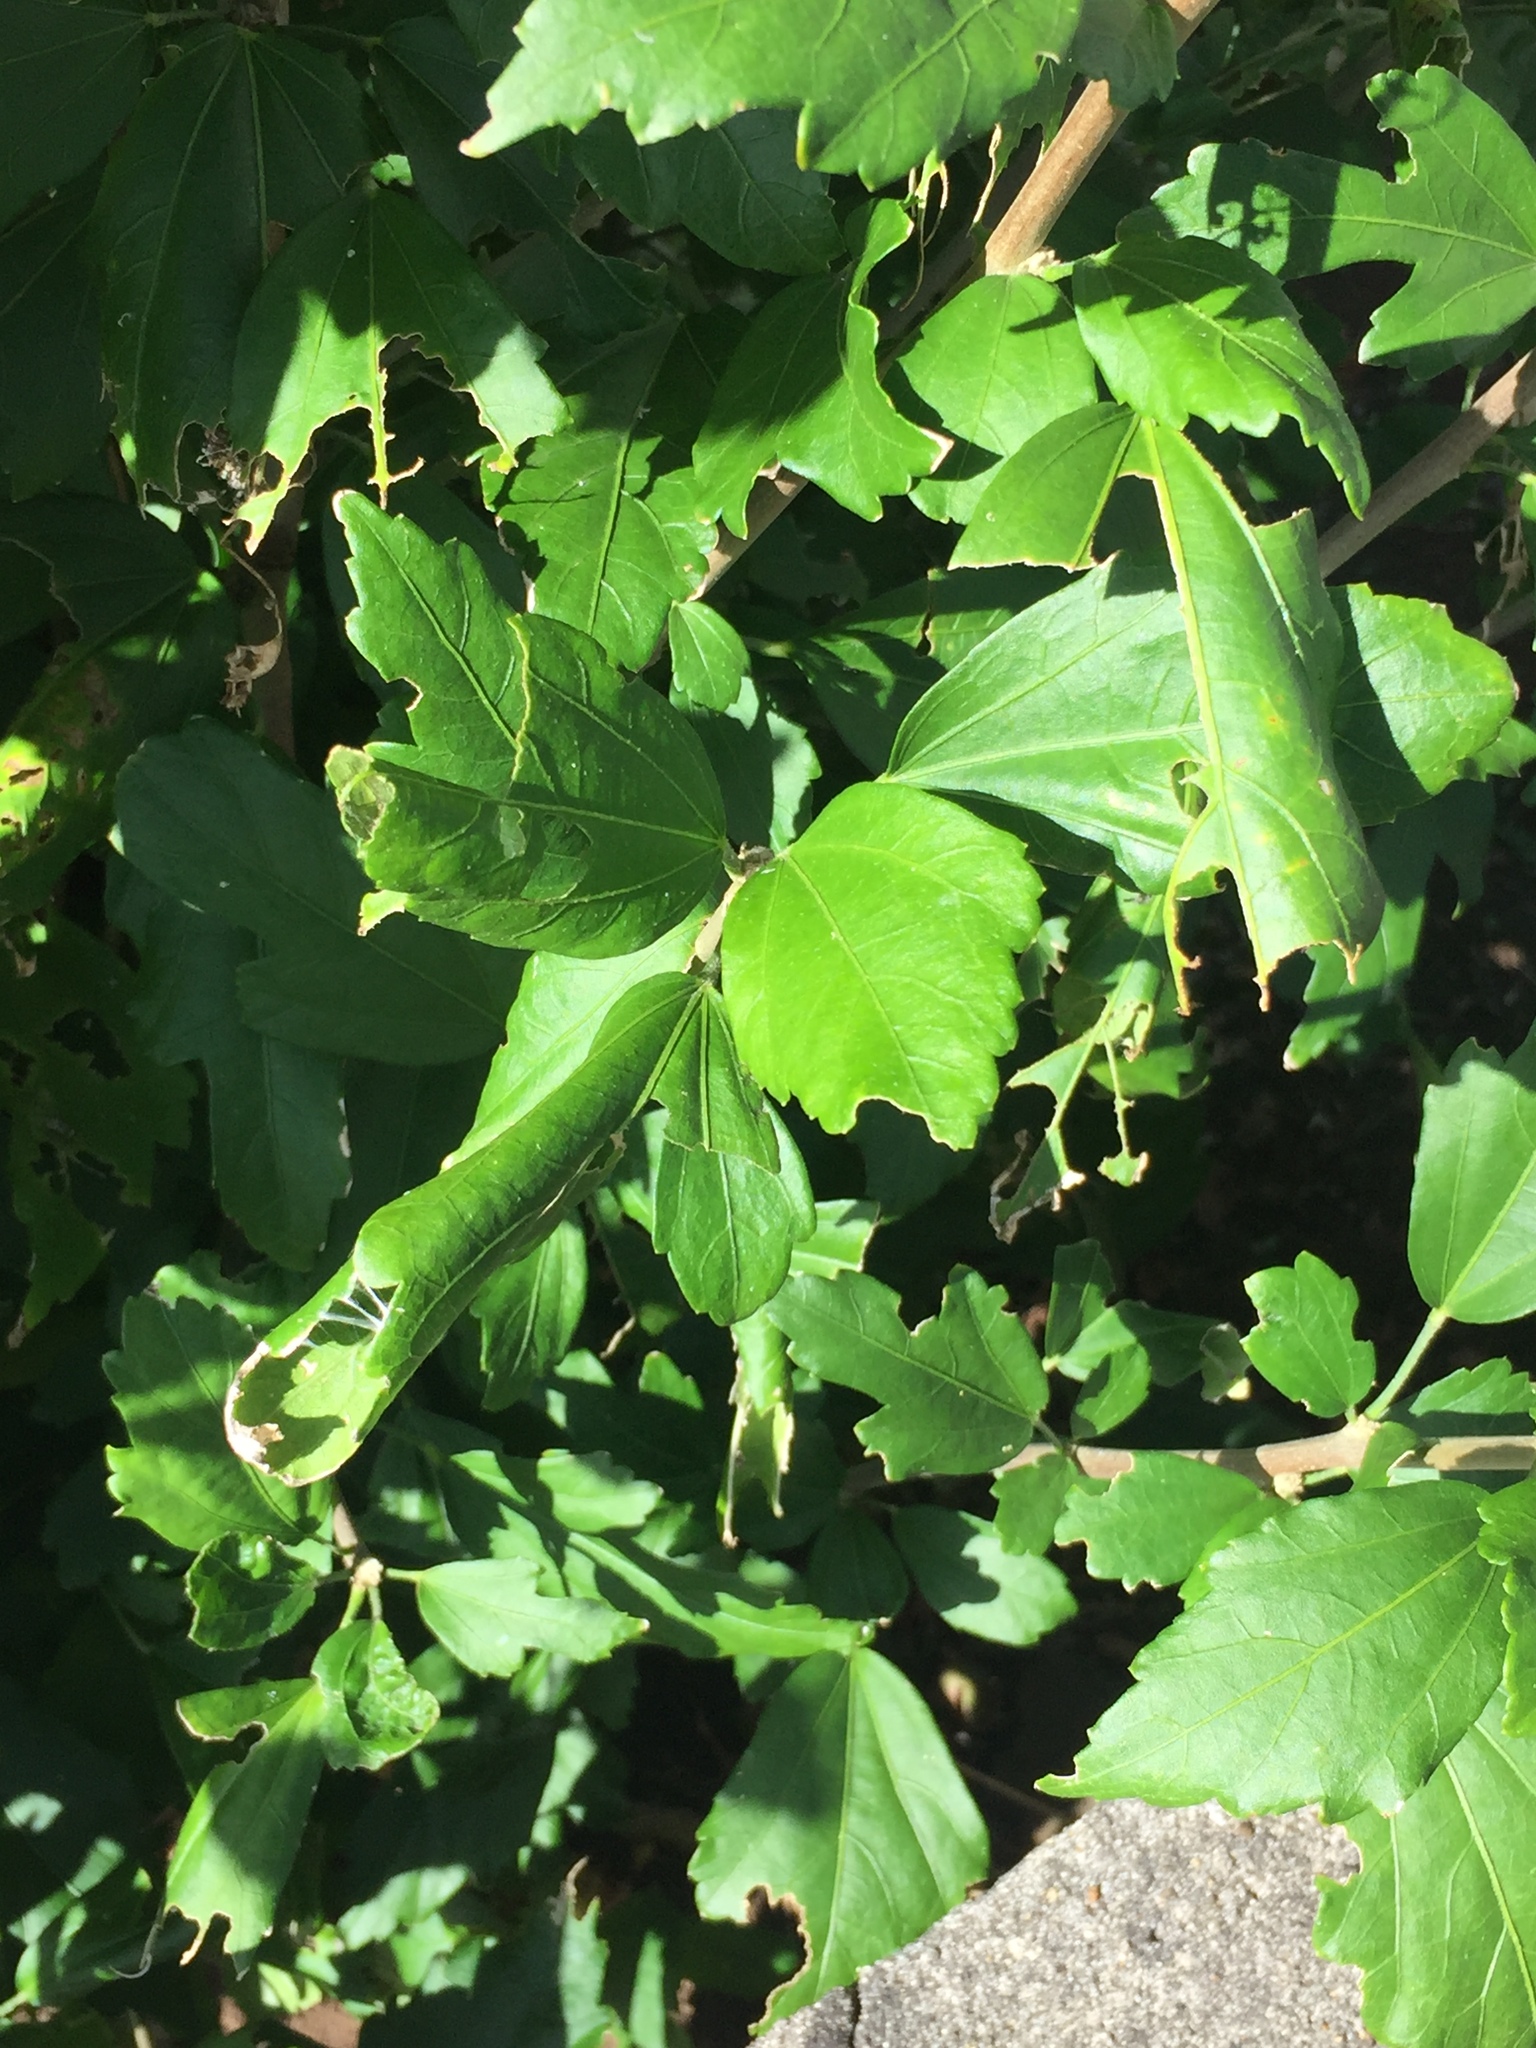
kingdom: Animalia
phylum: Arthropoda
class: Insecta
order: Lepidoptera
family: Crambidae
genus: Haritalodes
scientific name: Haritalodes derogata
